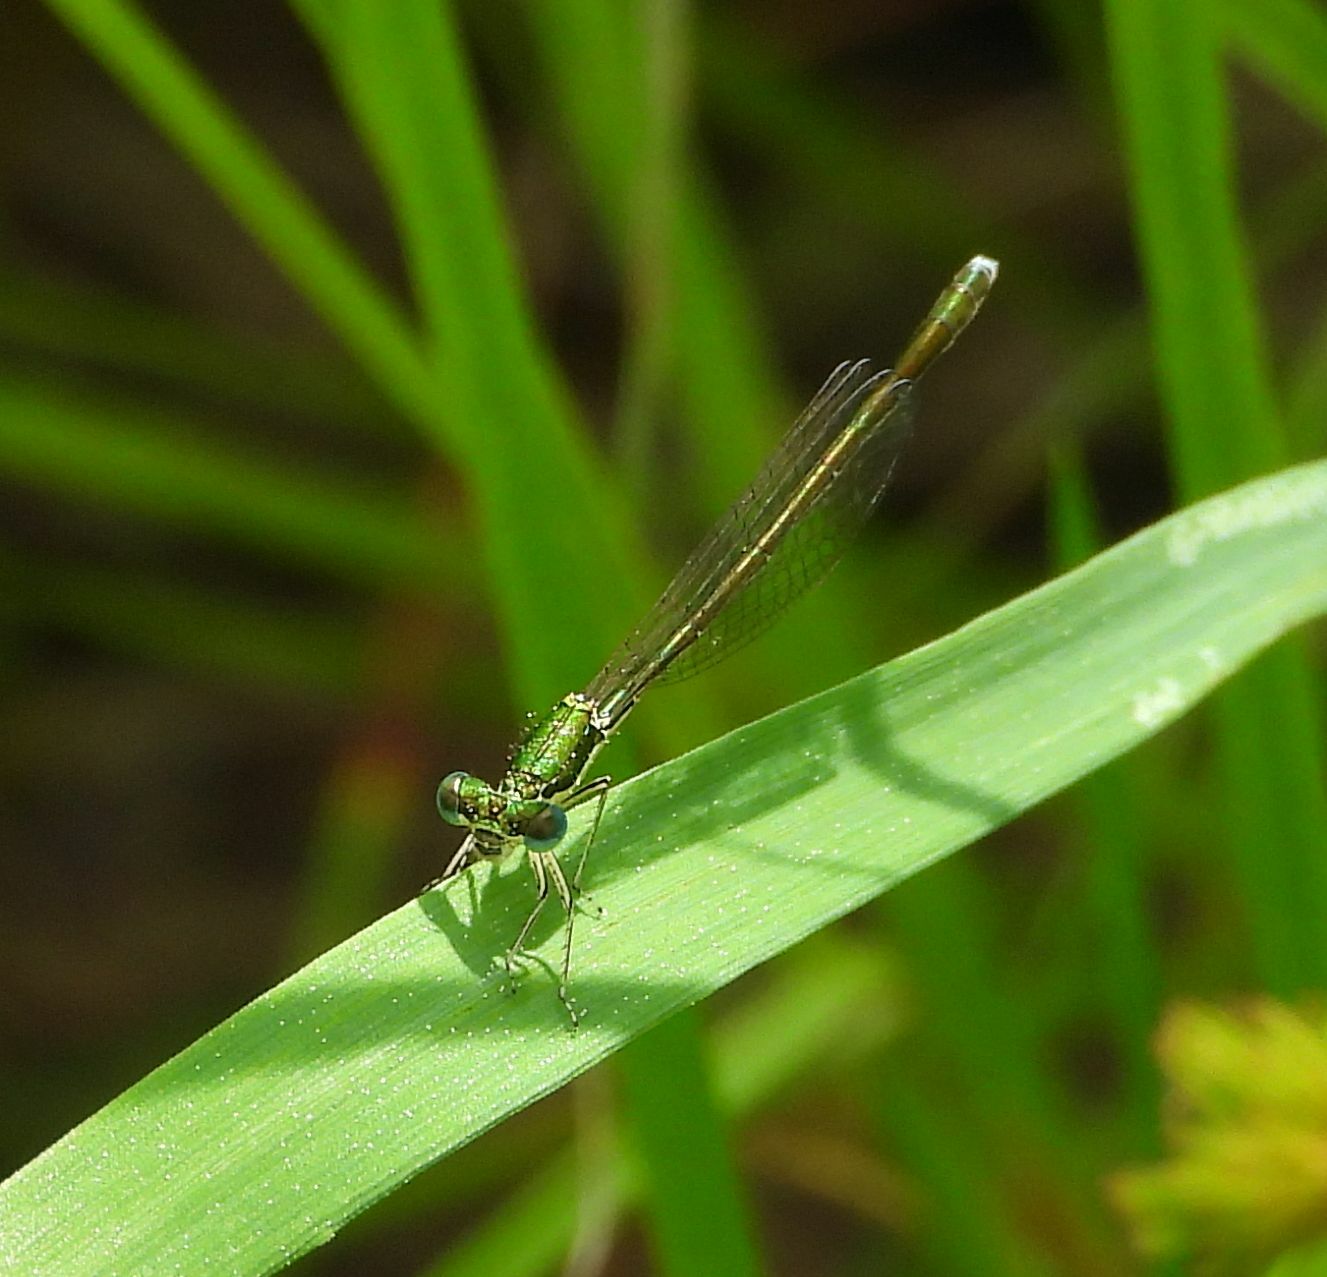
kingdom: Animalia
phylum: Arthropoda
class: Insecta
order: Odonata
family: Coenagrionidae
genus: Nehalennia
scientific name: Nehalennia irene
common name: Sedge sprite
